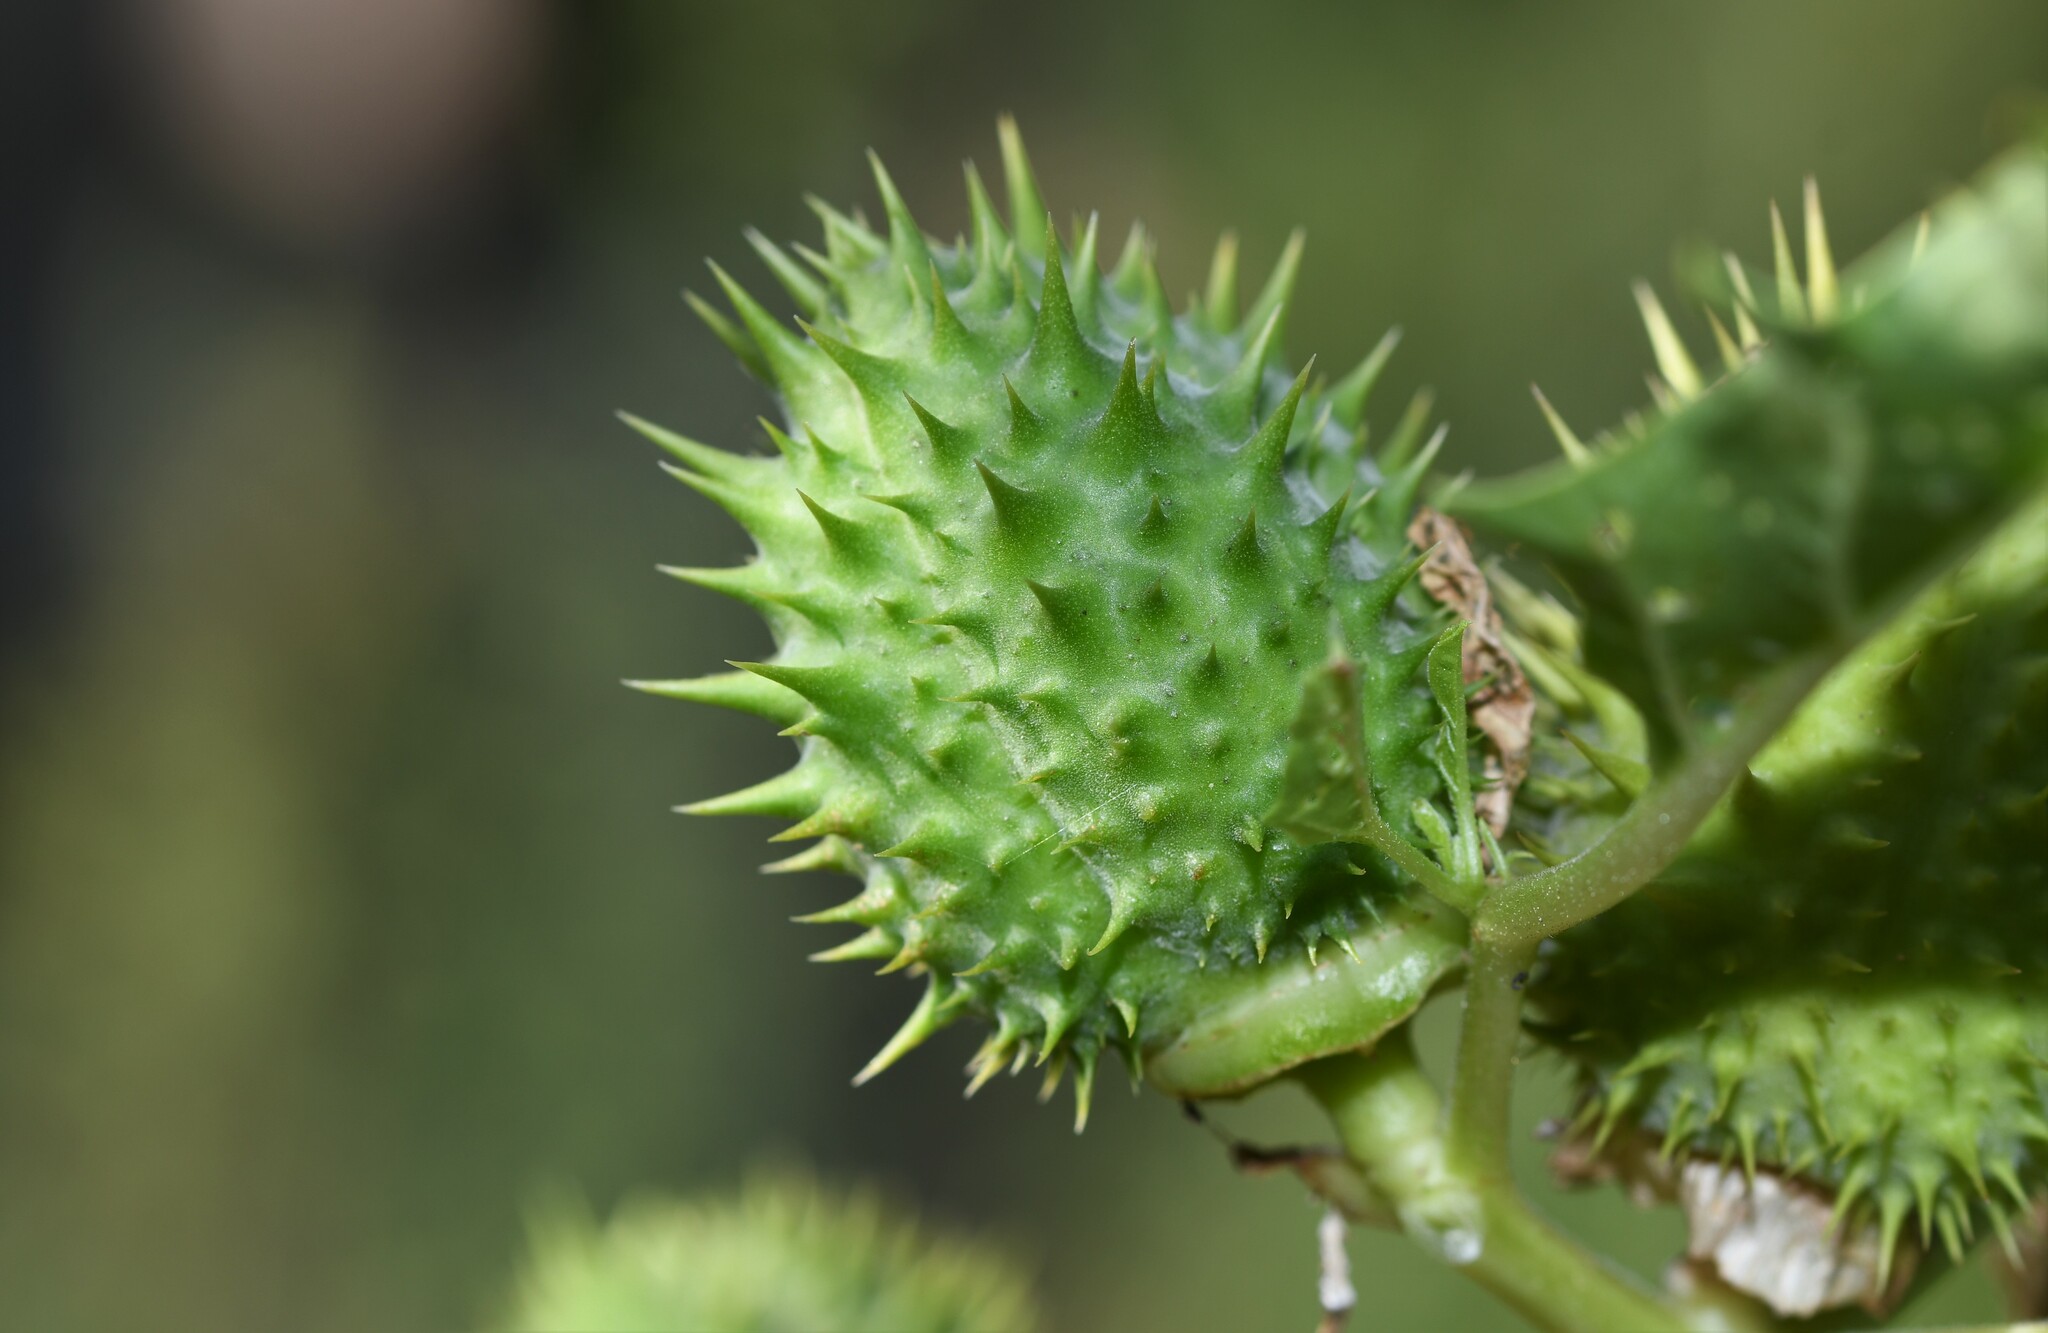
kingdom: Plantae
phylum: Tracheophyta
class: Magnoliopsida
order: Solanales
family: Solanaceae
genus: Datura
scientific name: Datura stramonium
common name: Thorn-apple
